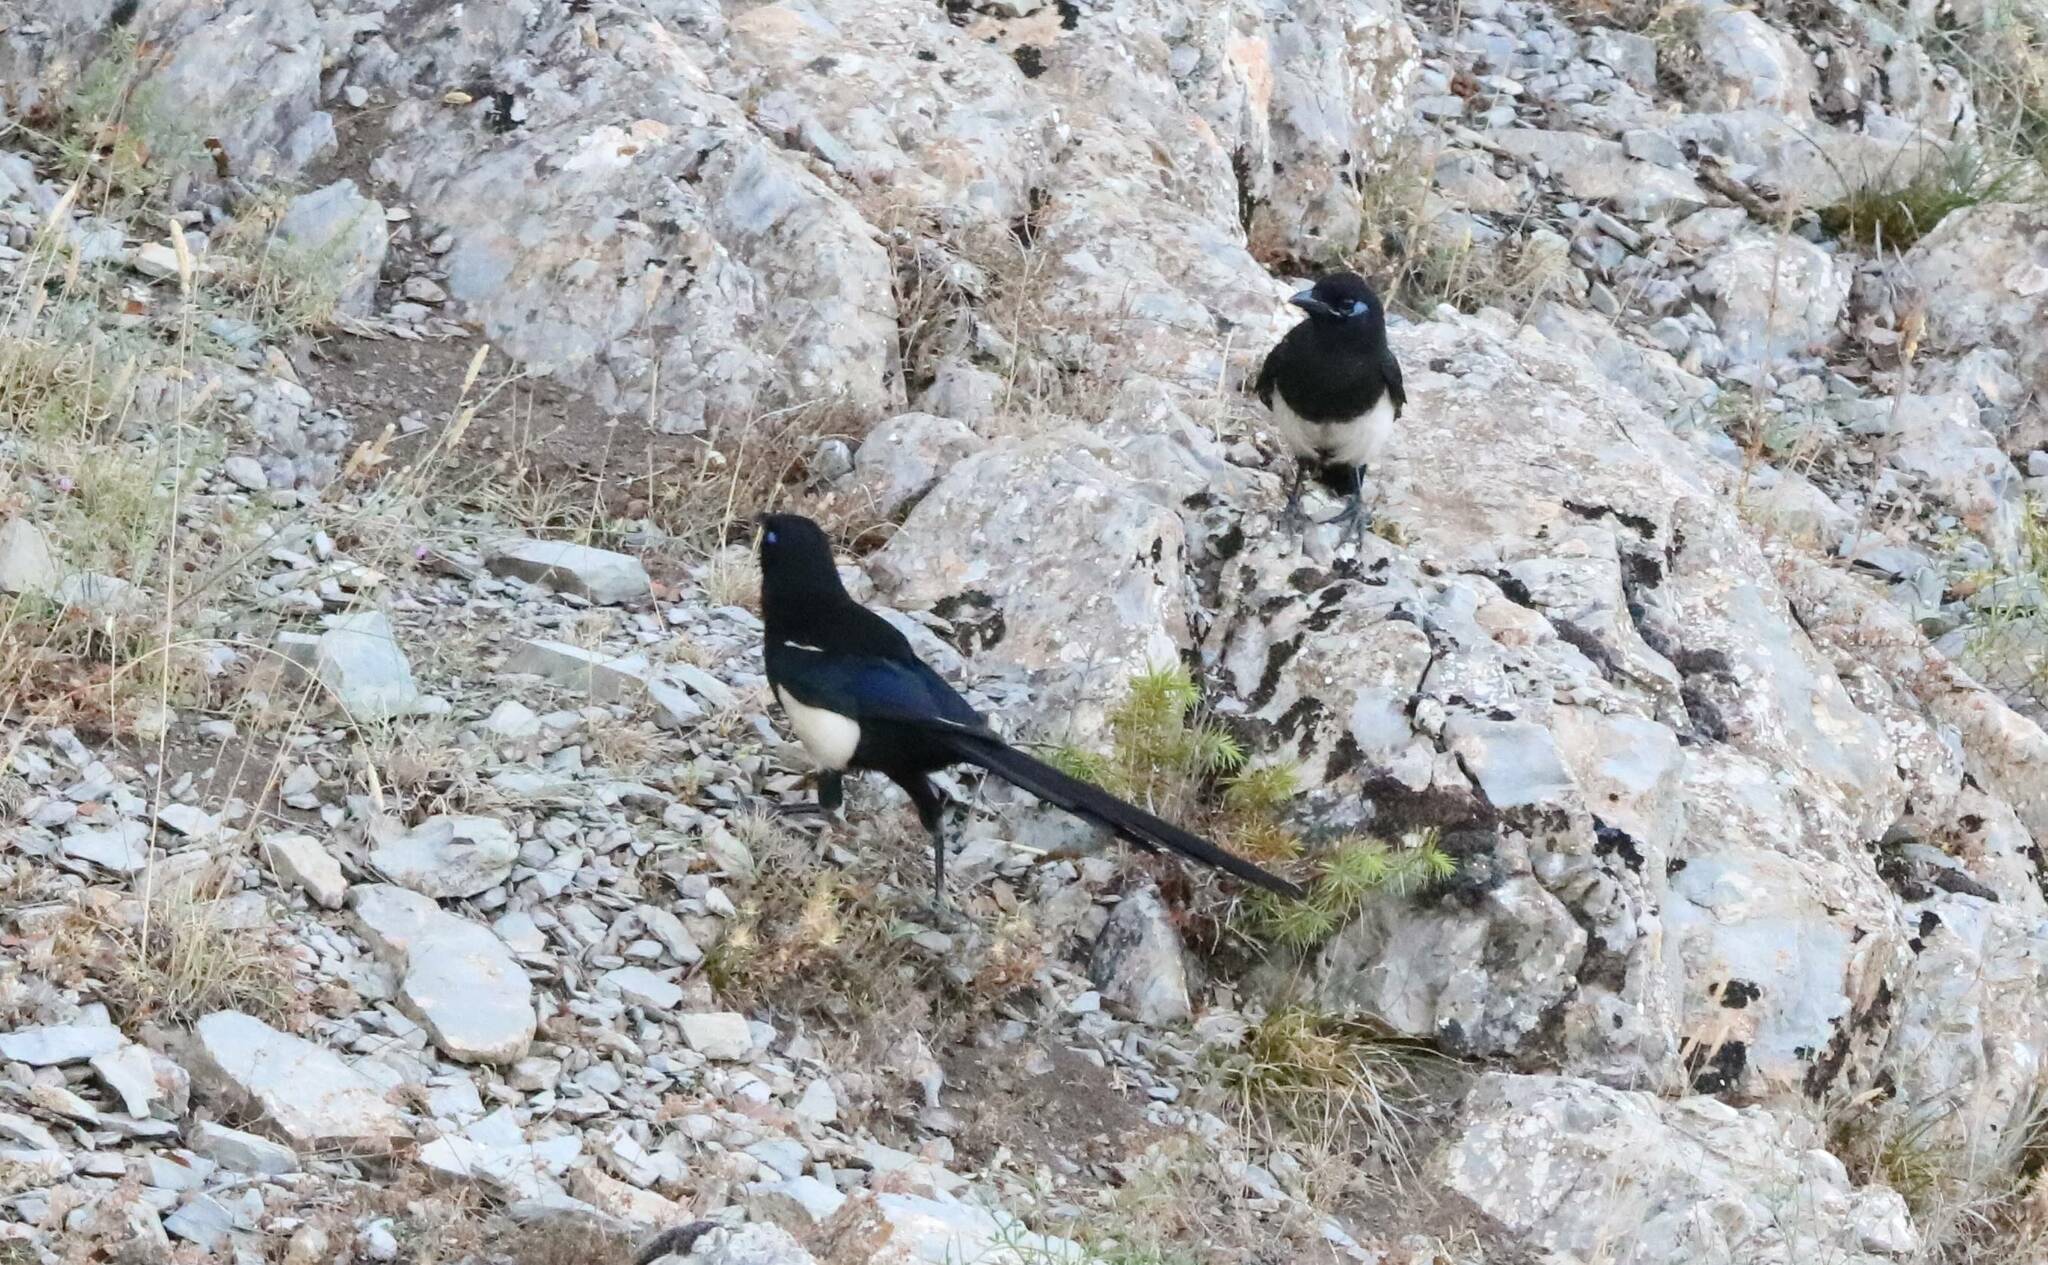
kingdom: Animalia
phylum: Chordata
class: Aves
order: Passeriformes
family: Corvidae
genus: Pica
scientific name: Pica mauritanica
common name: Maghreb magpie
